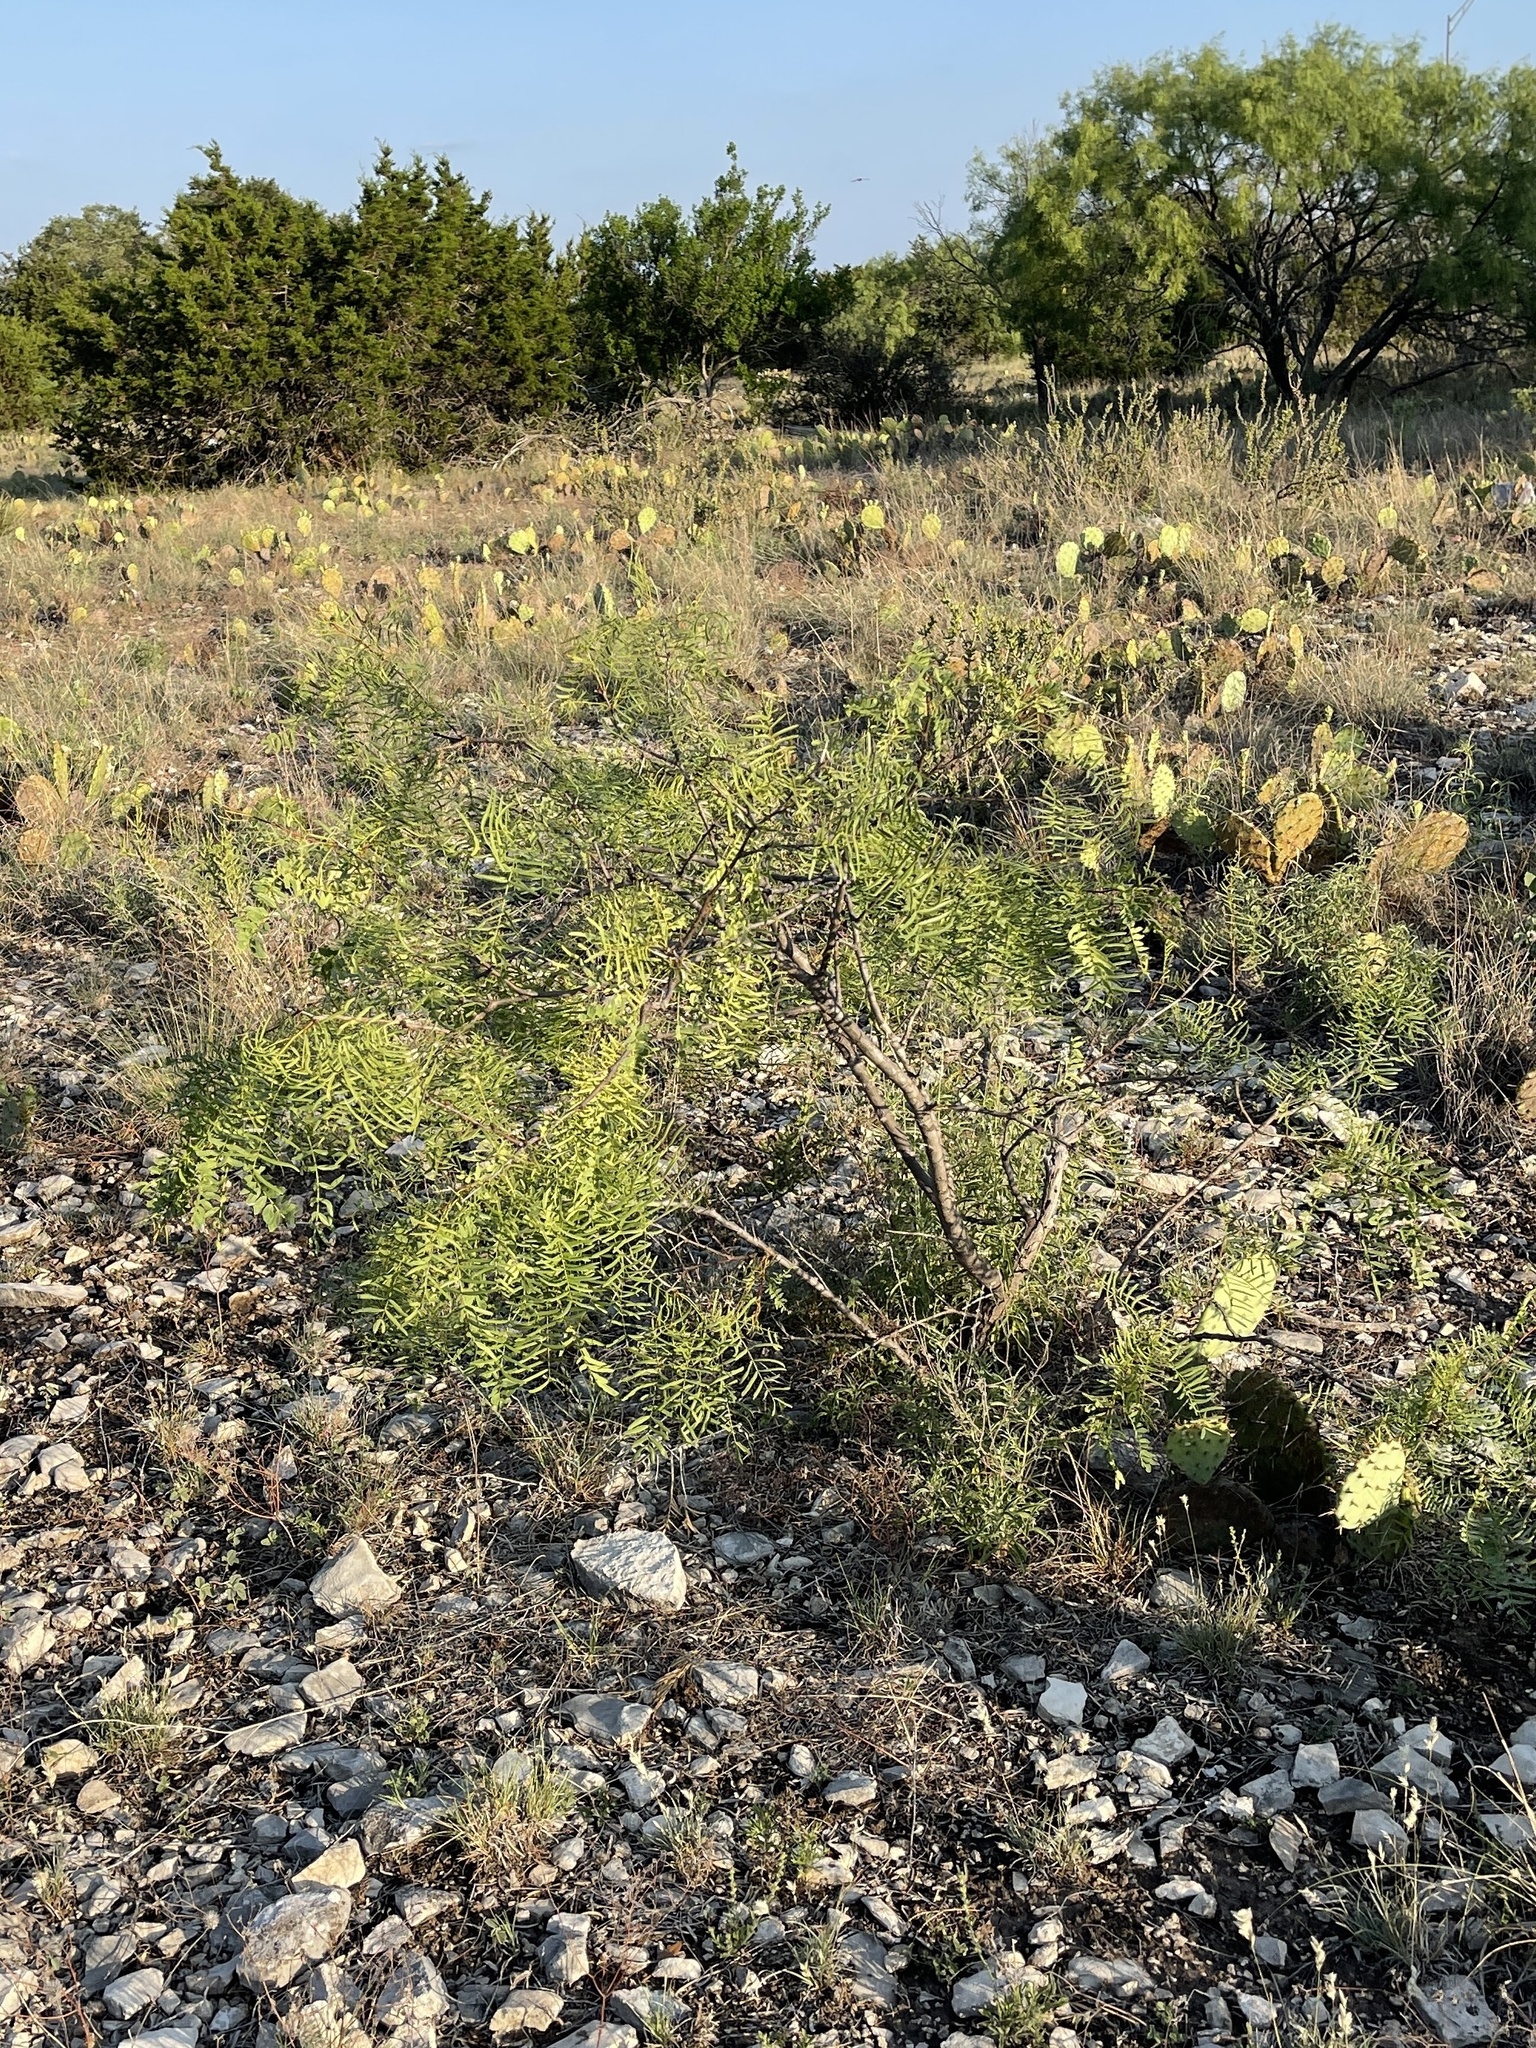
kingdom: Plantae
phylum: Tracheophyta
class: Magnoliopsida
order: Fabales
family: Fabaceae
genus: Prosopis
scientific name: Prosopis glandulosa
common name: Honey mesquite
